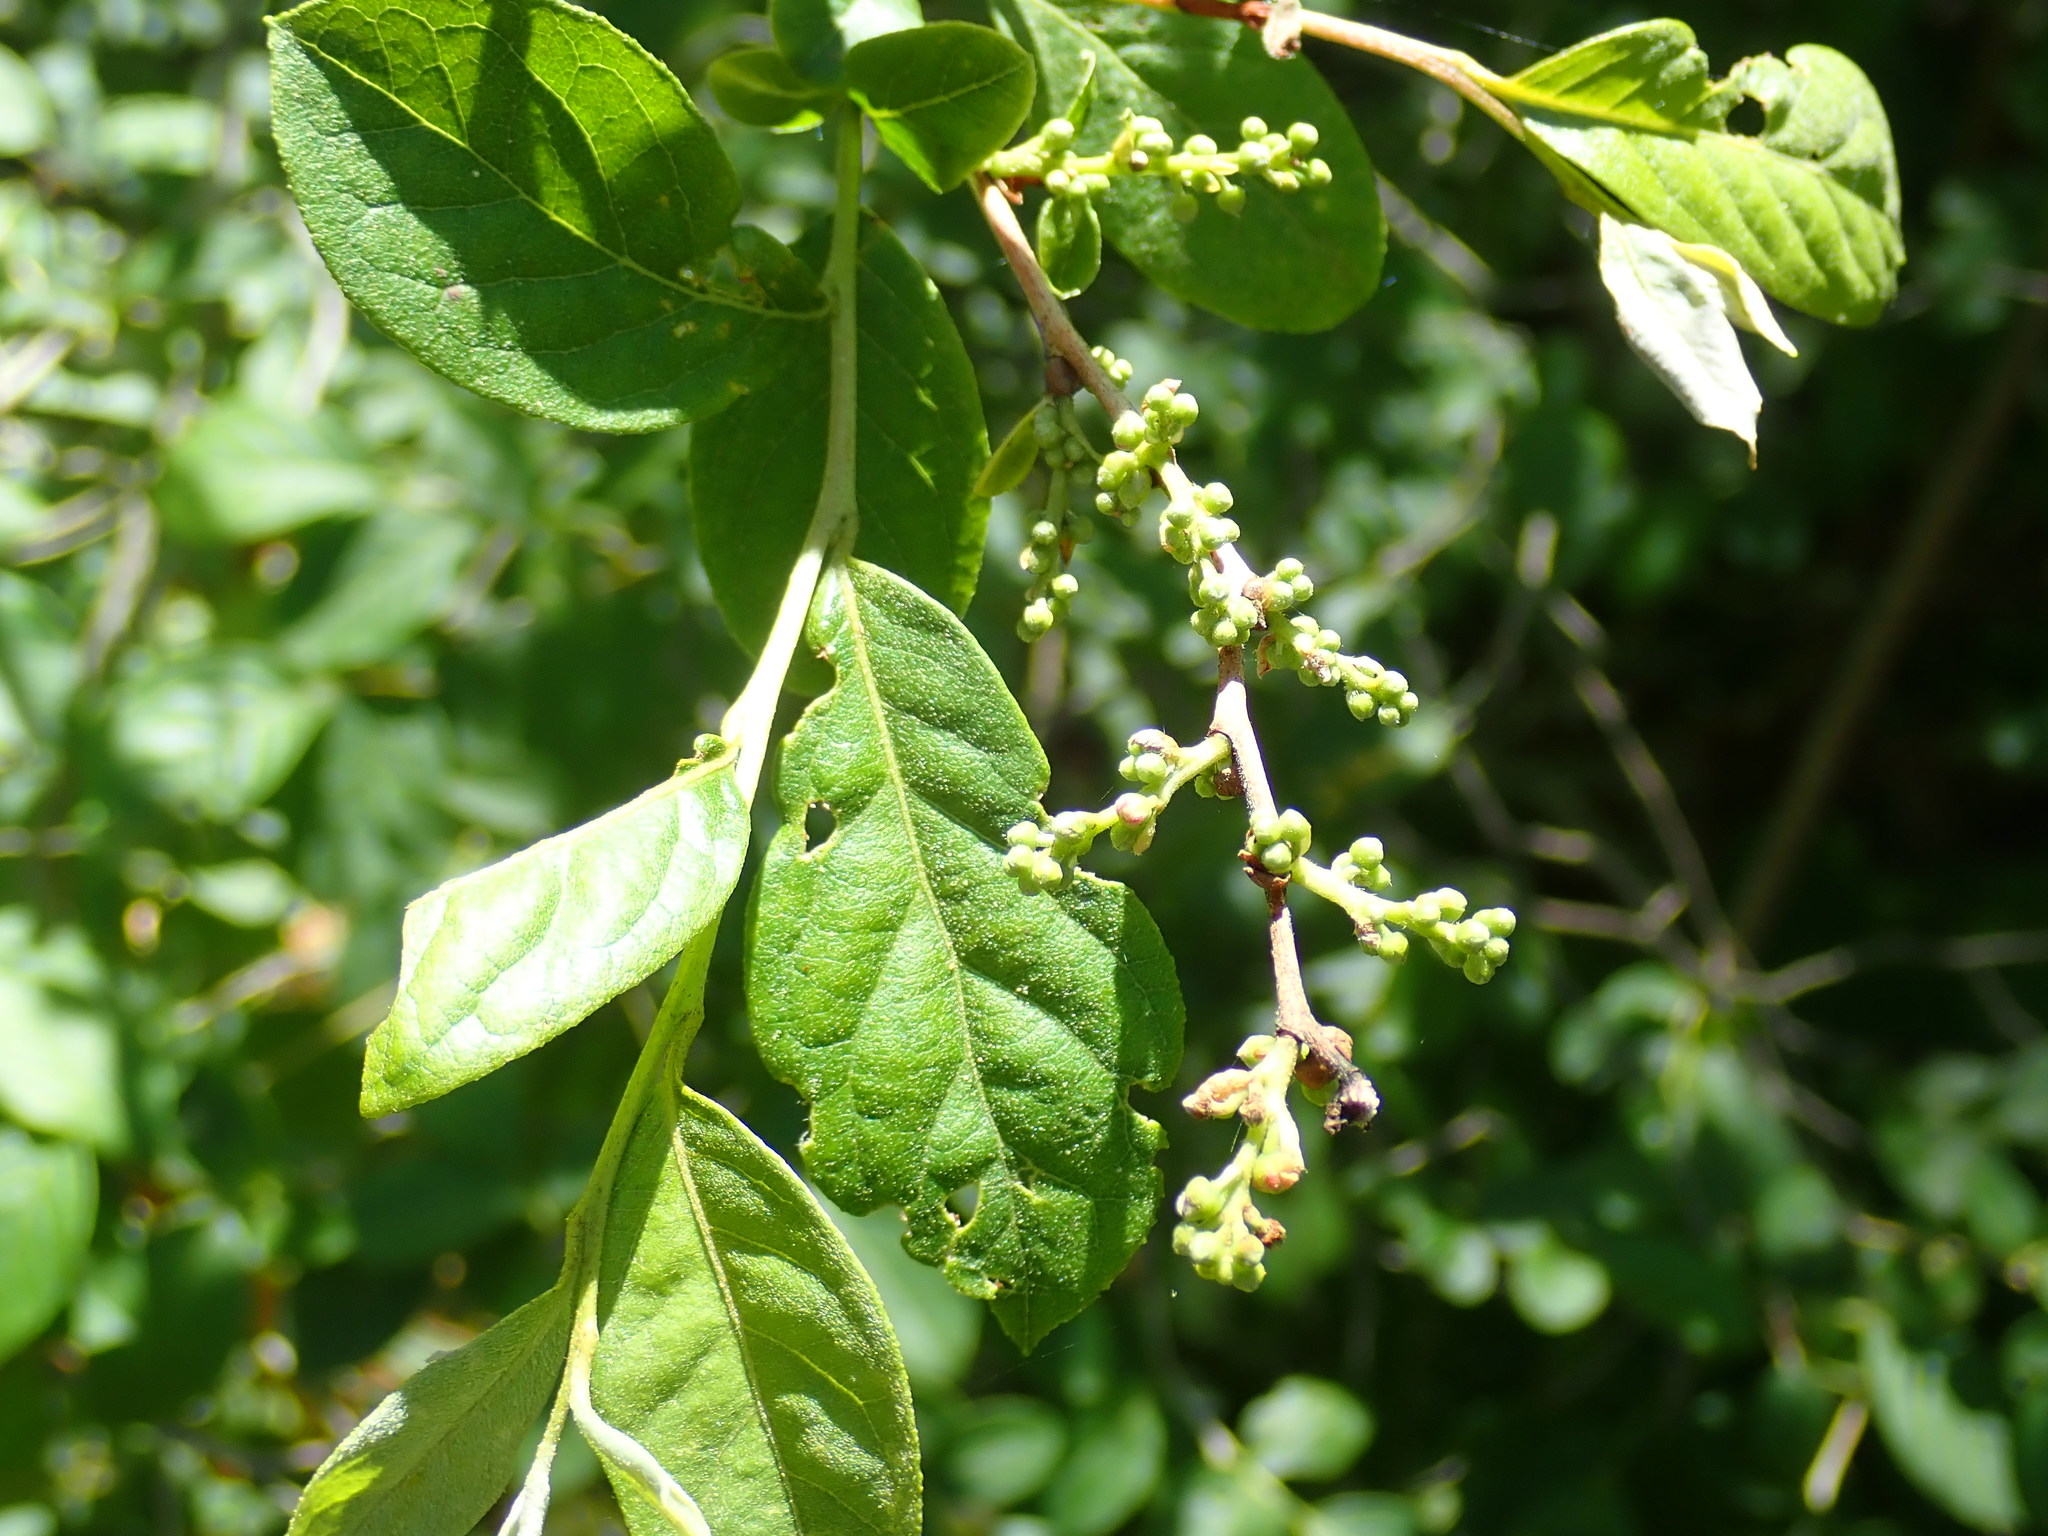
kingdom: Plantae
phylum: Tracheophyta
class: Magnoliopsida
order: Ericales
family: Ericaceae
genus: Lyonia
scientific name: Lyonia ligustrina
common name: Maleberry
